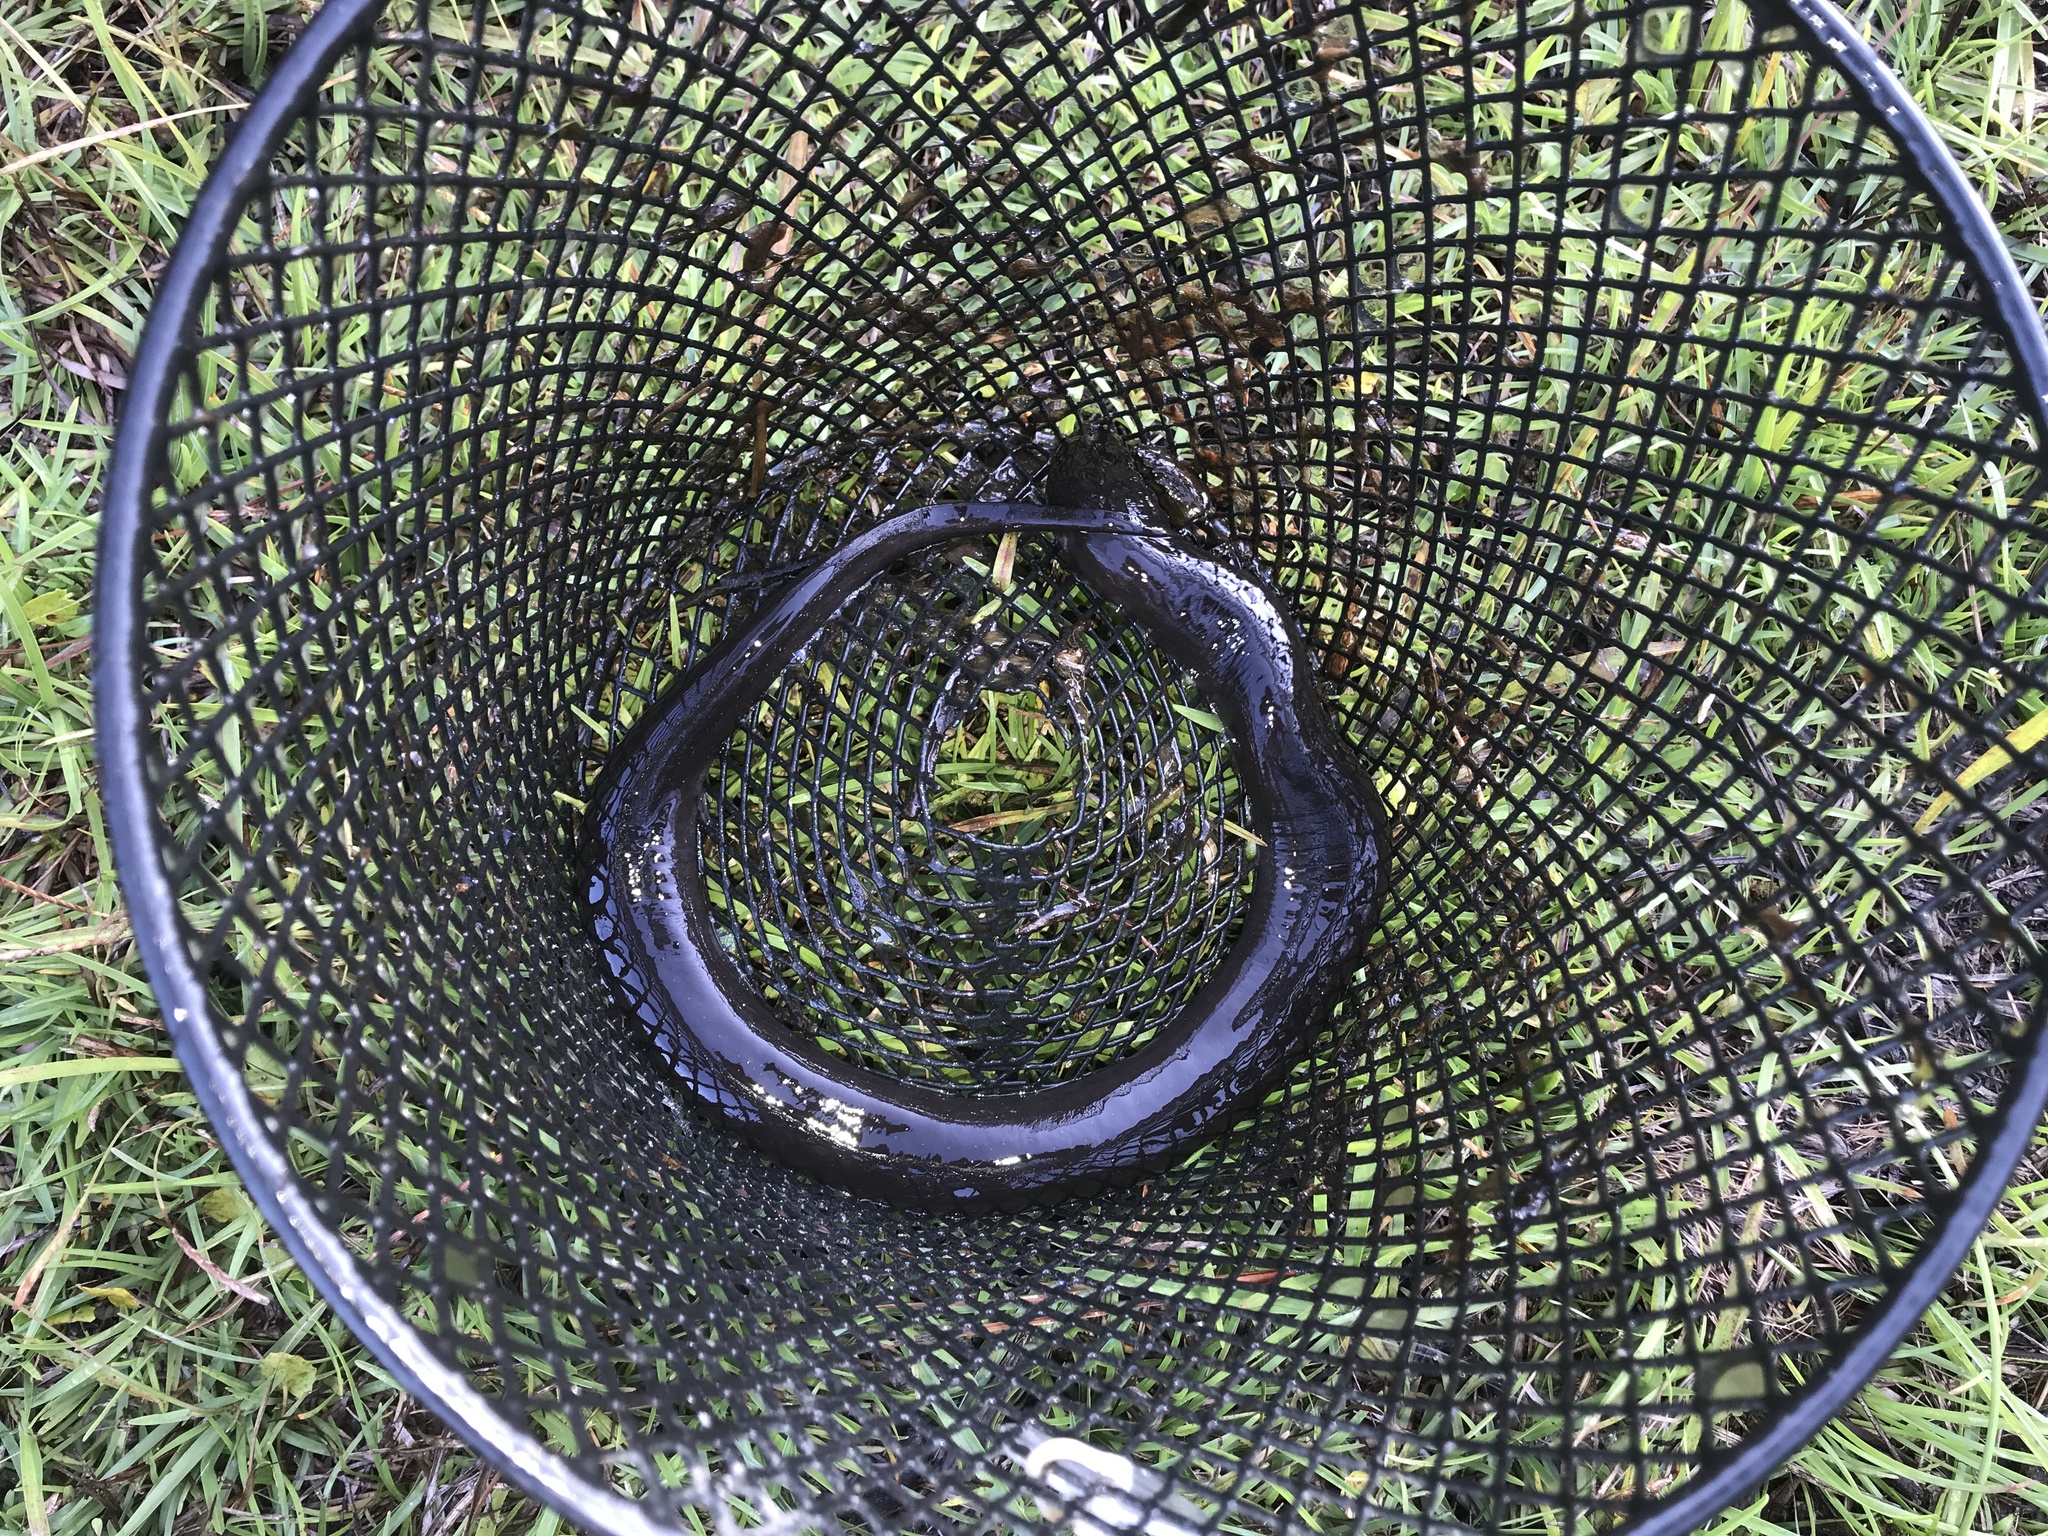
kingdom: Animalia
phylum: Chordata
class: Amphibia
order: Caudata
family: Amphiumidae
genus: Amphiuma
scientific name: Amphiuma means
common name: Two-toed amphiuma
